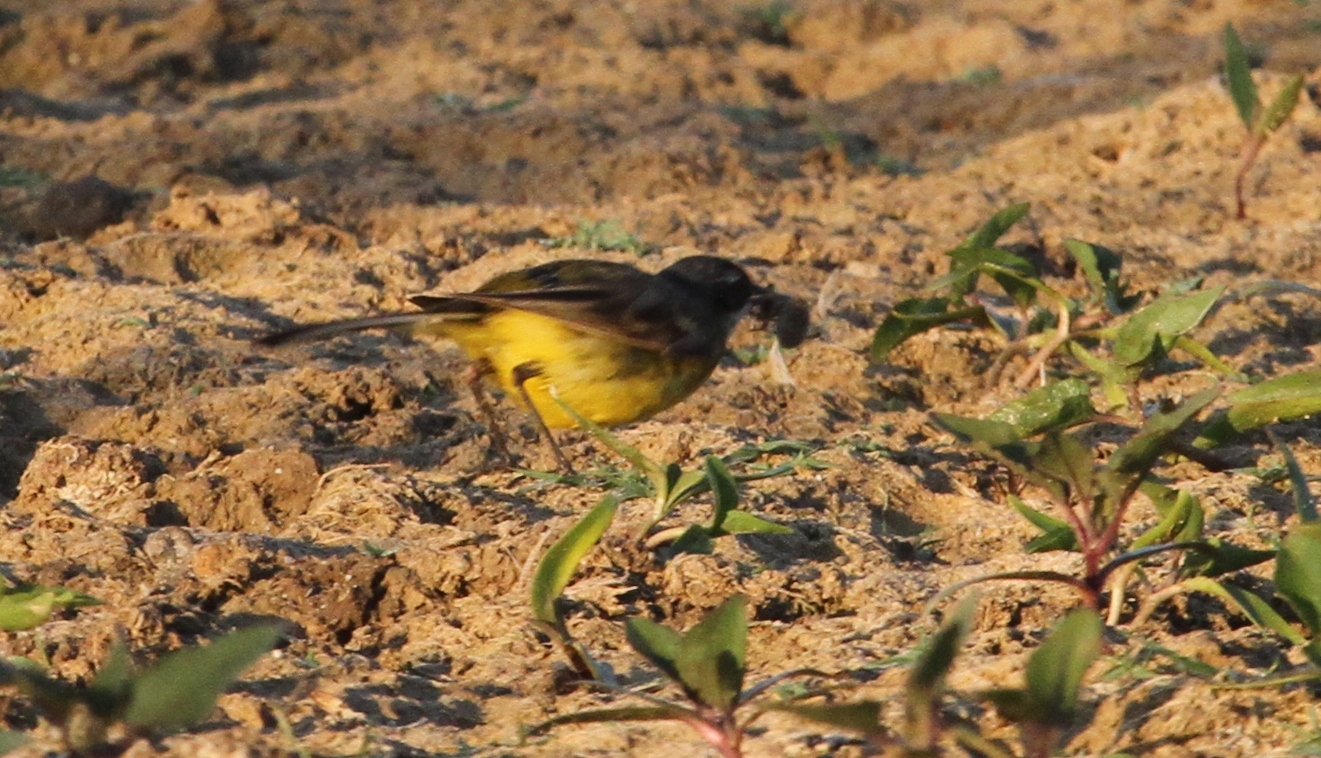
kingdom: Animalia
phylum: Chordata
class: Aves
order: Passeriformes
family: Motacillidae
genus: Motacilla
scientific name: Motacilla flava
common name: Western yellow wagtail
